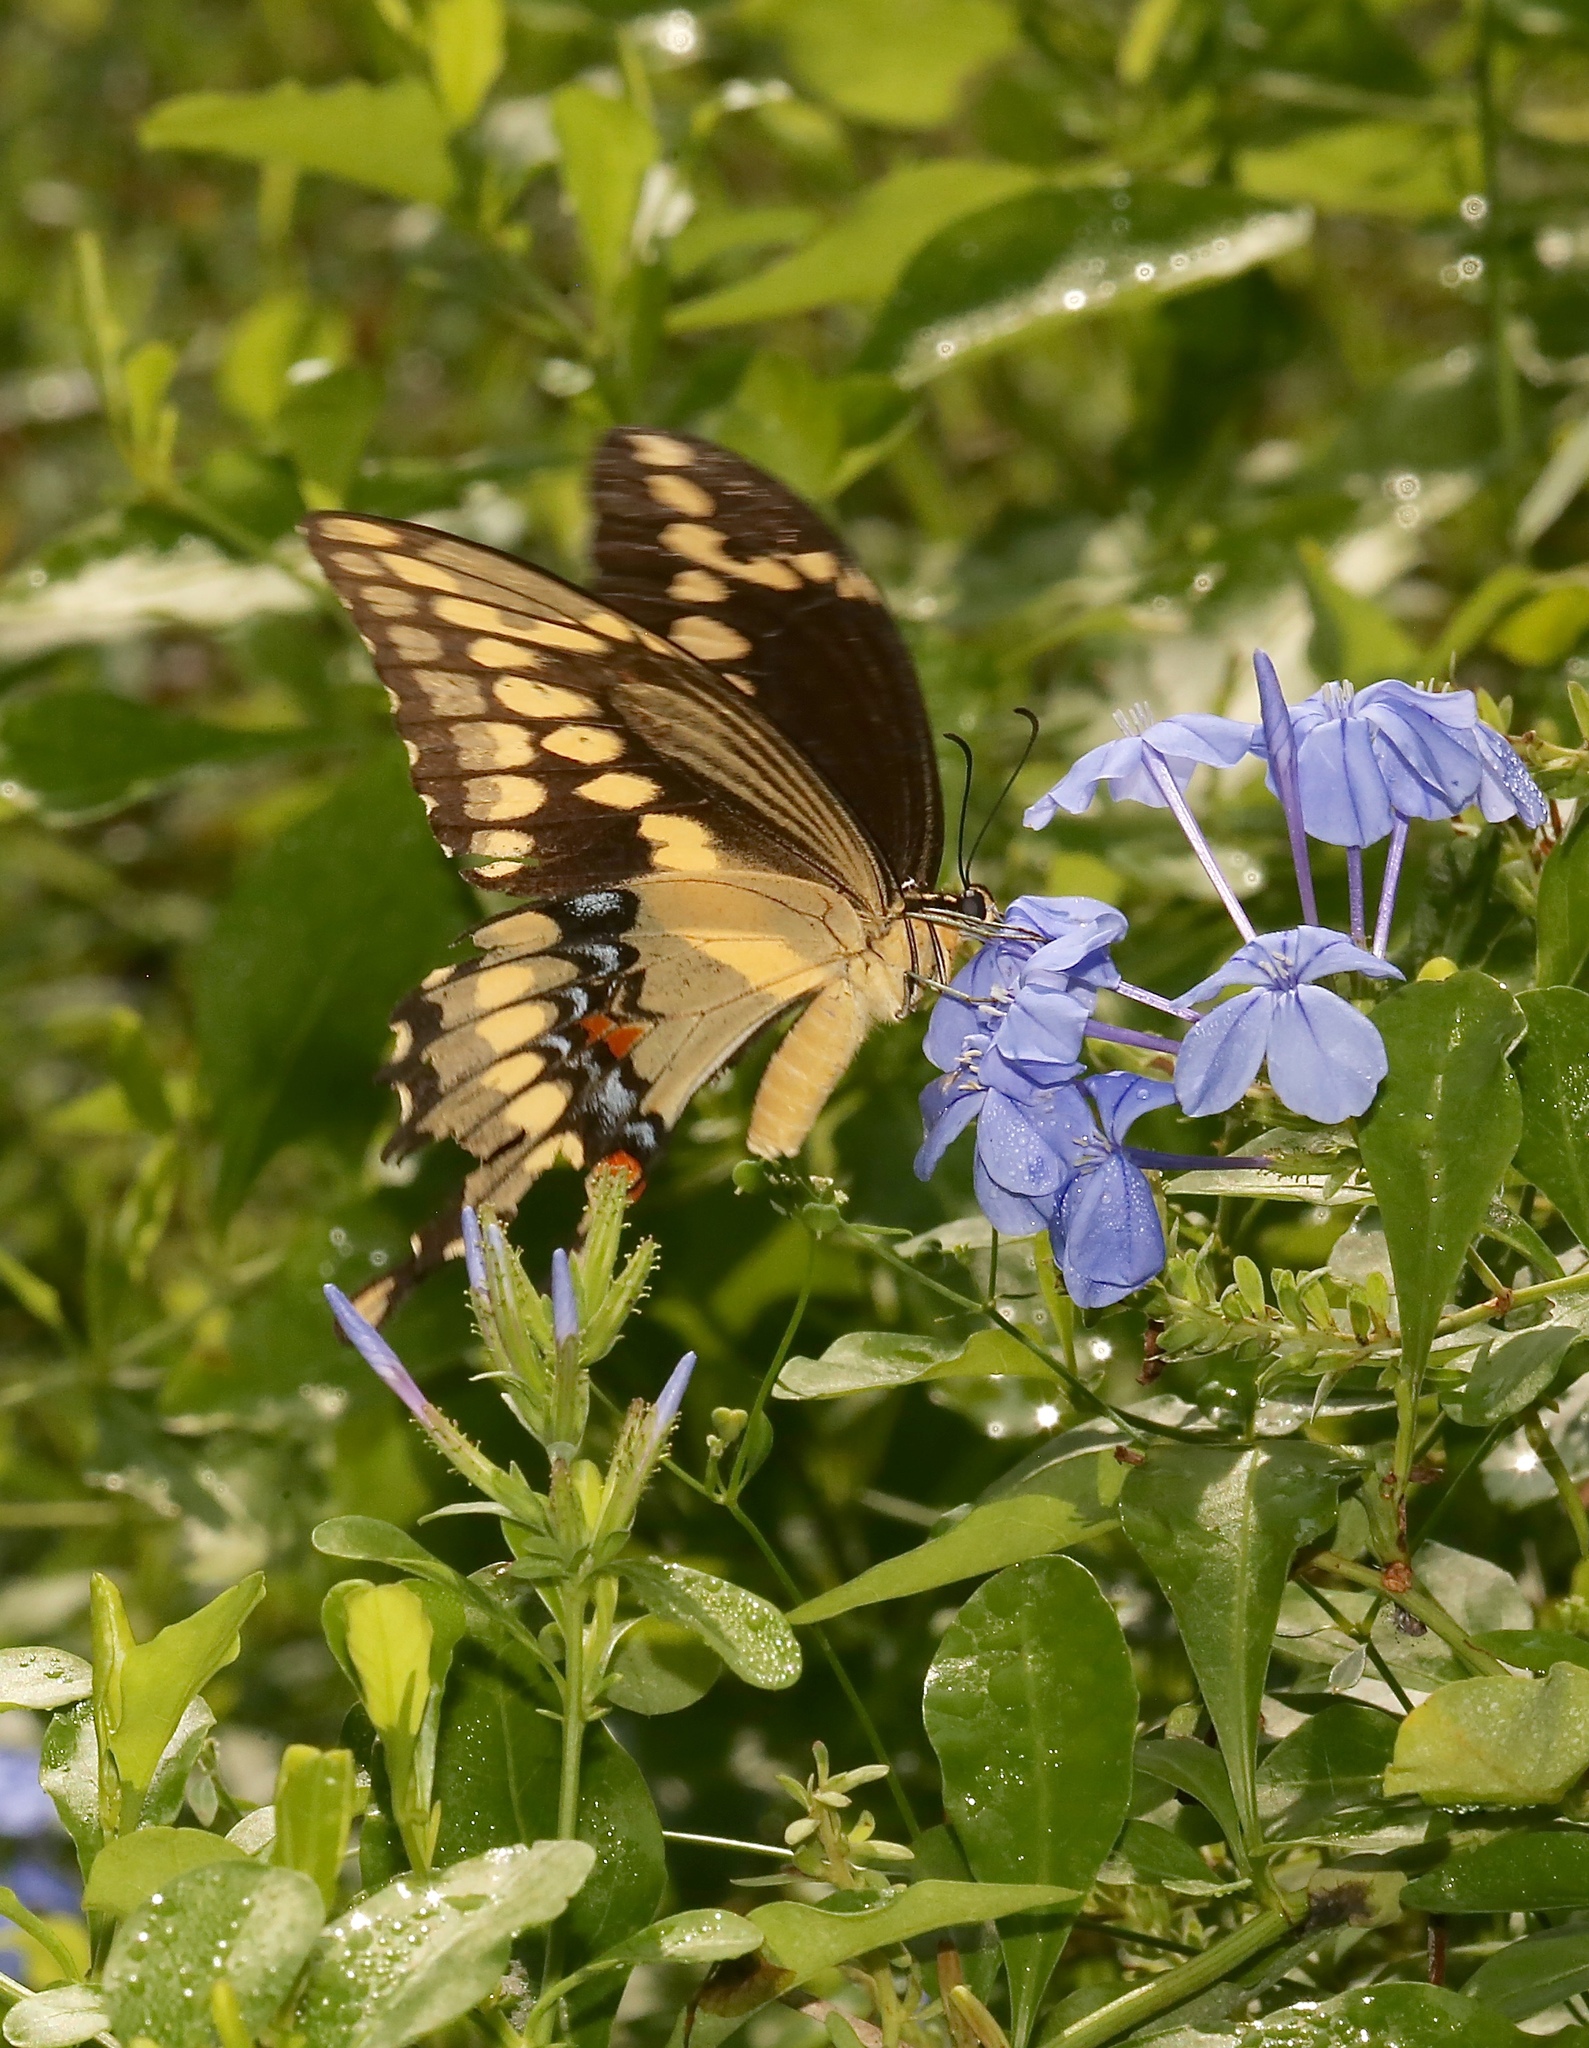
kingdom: Animalia
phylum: Arthropoda
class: Insecta
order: Lepidoptera
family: Papilionidae
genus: Papilio
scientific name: Papilio cresphontes
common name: Giant swallowtail
